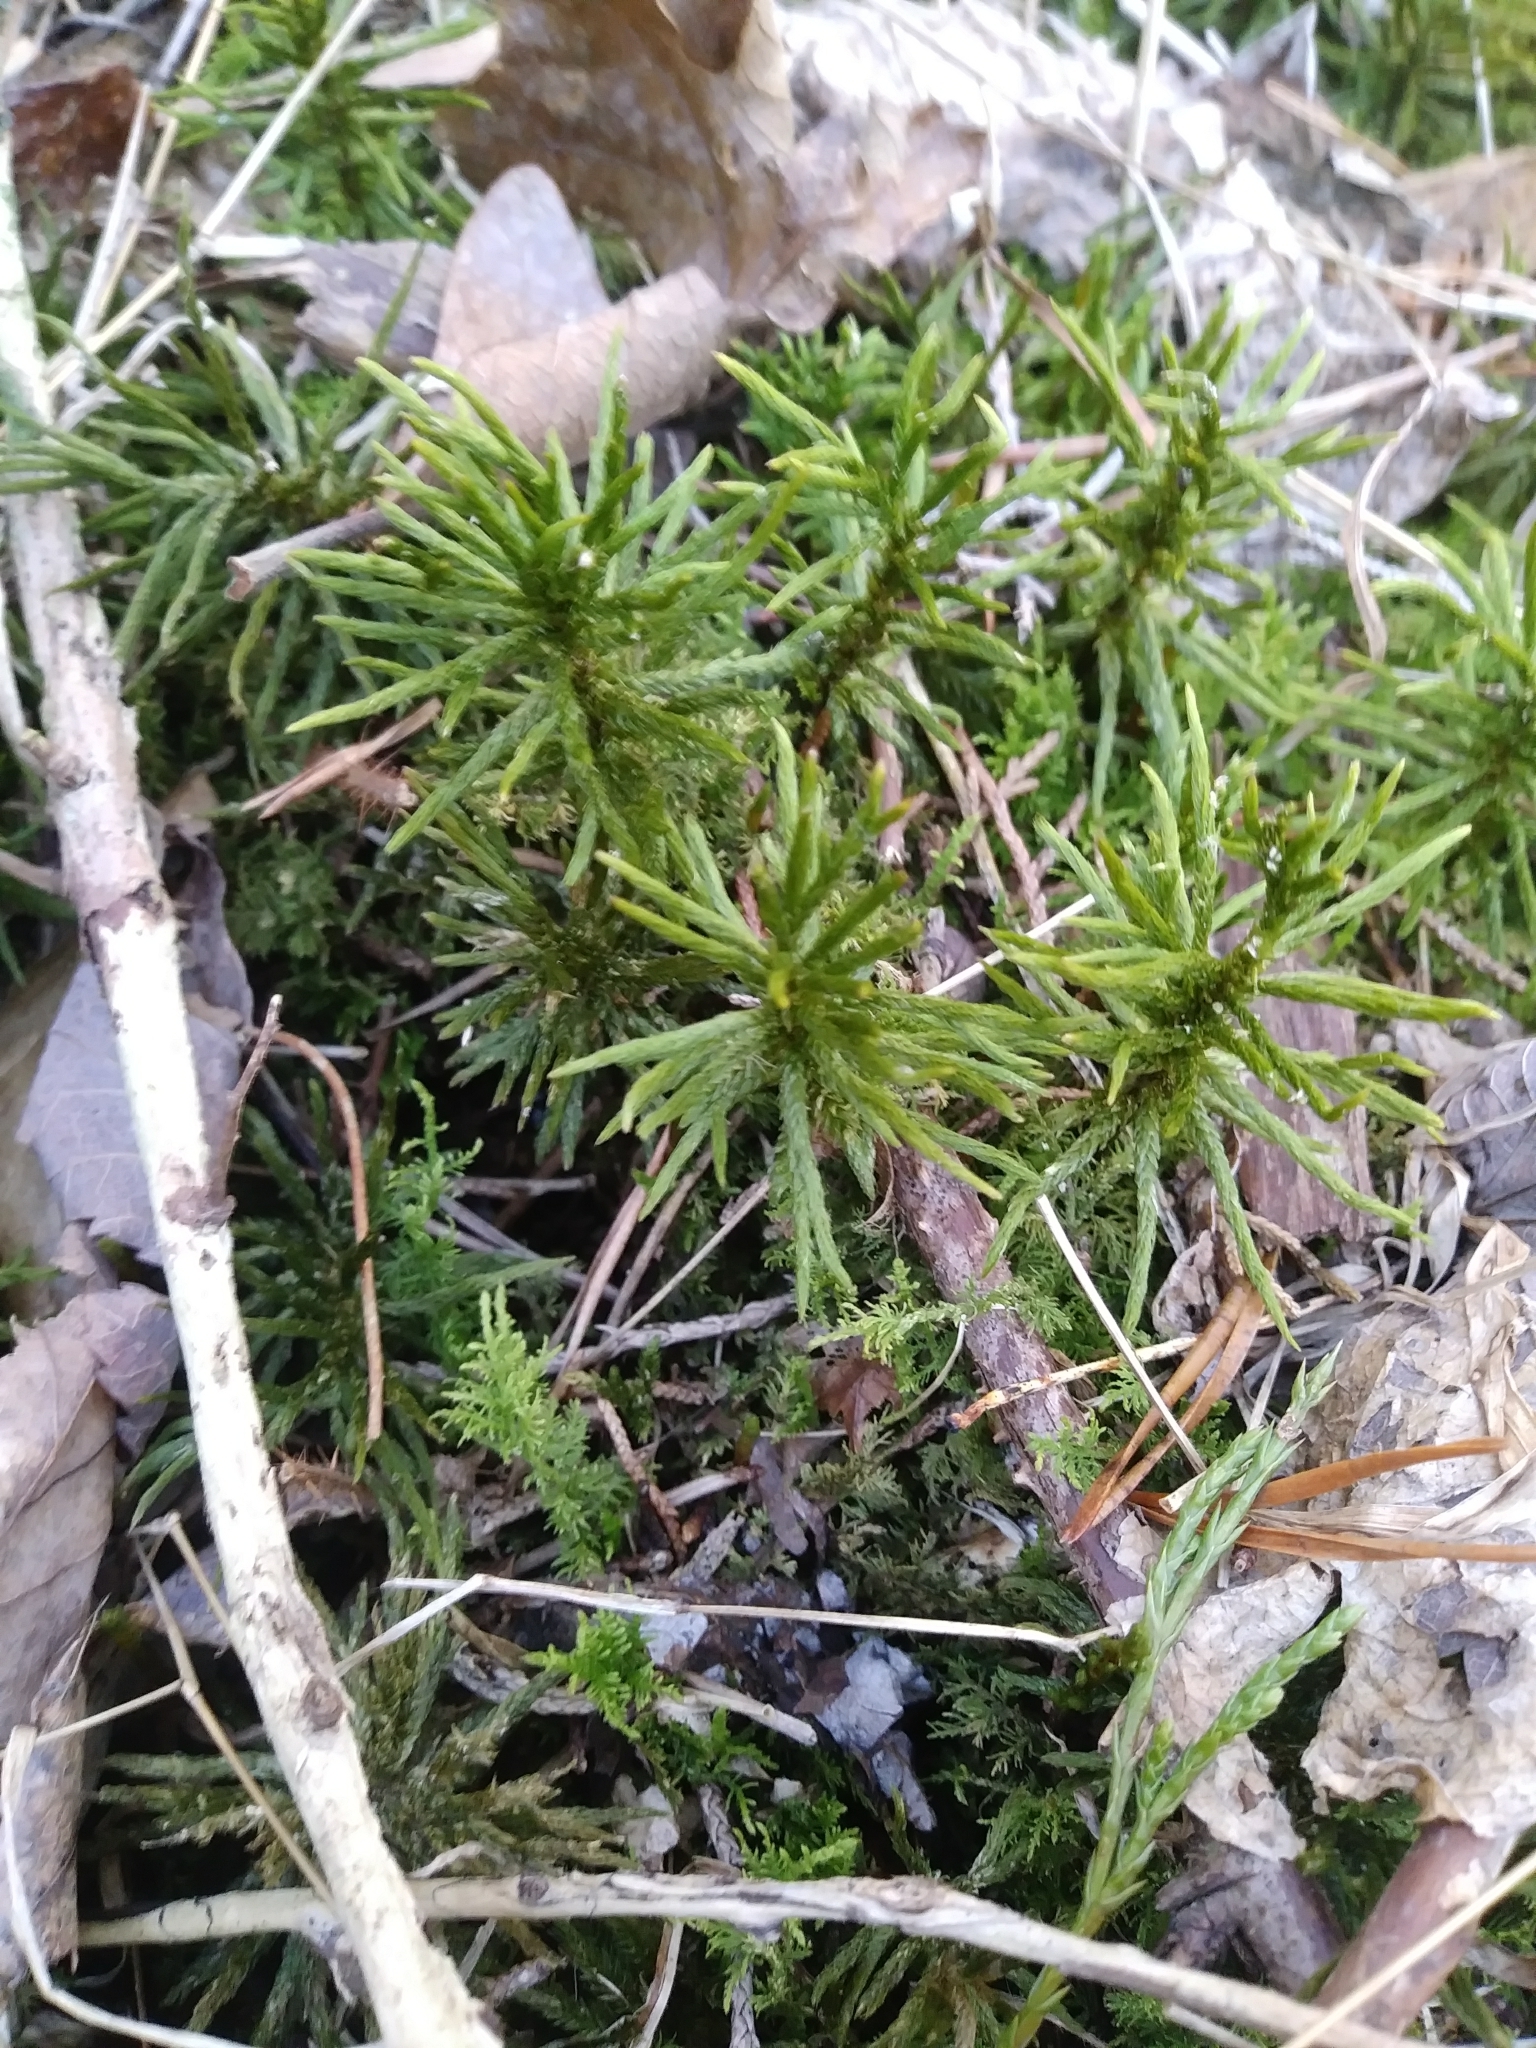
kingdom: Plantae
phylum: Bryophyta
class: Bryopsida
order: Hypnales
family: Climaciaceae
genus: Climacium
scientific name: Climacium americanum
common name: American tree moss
